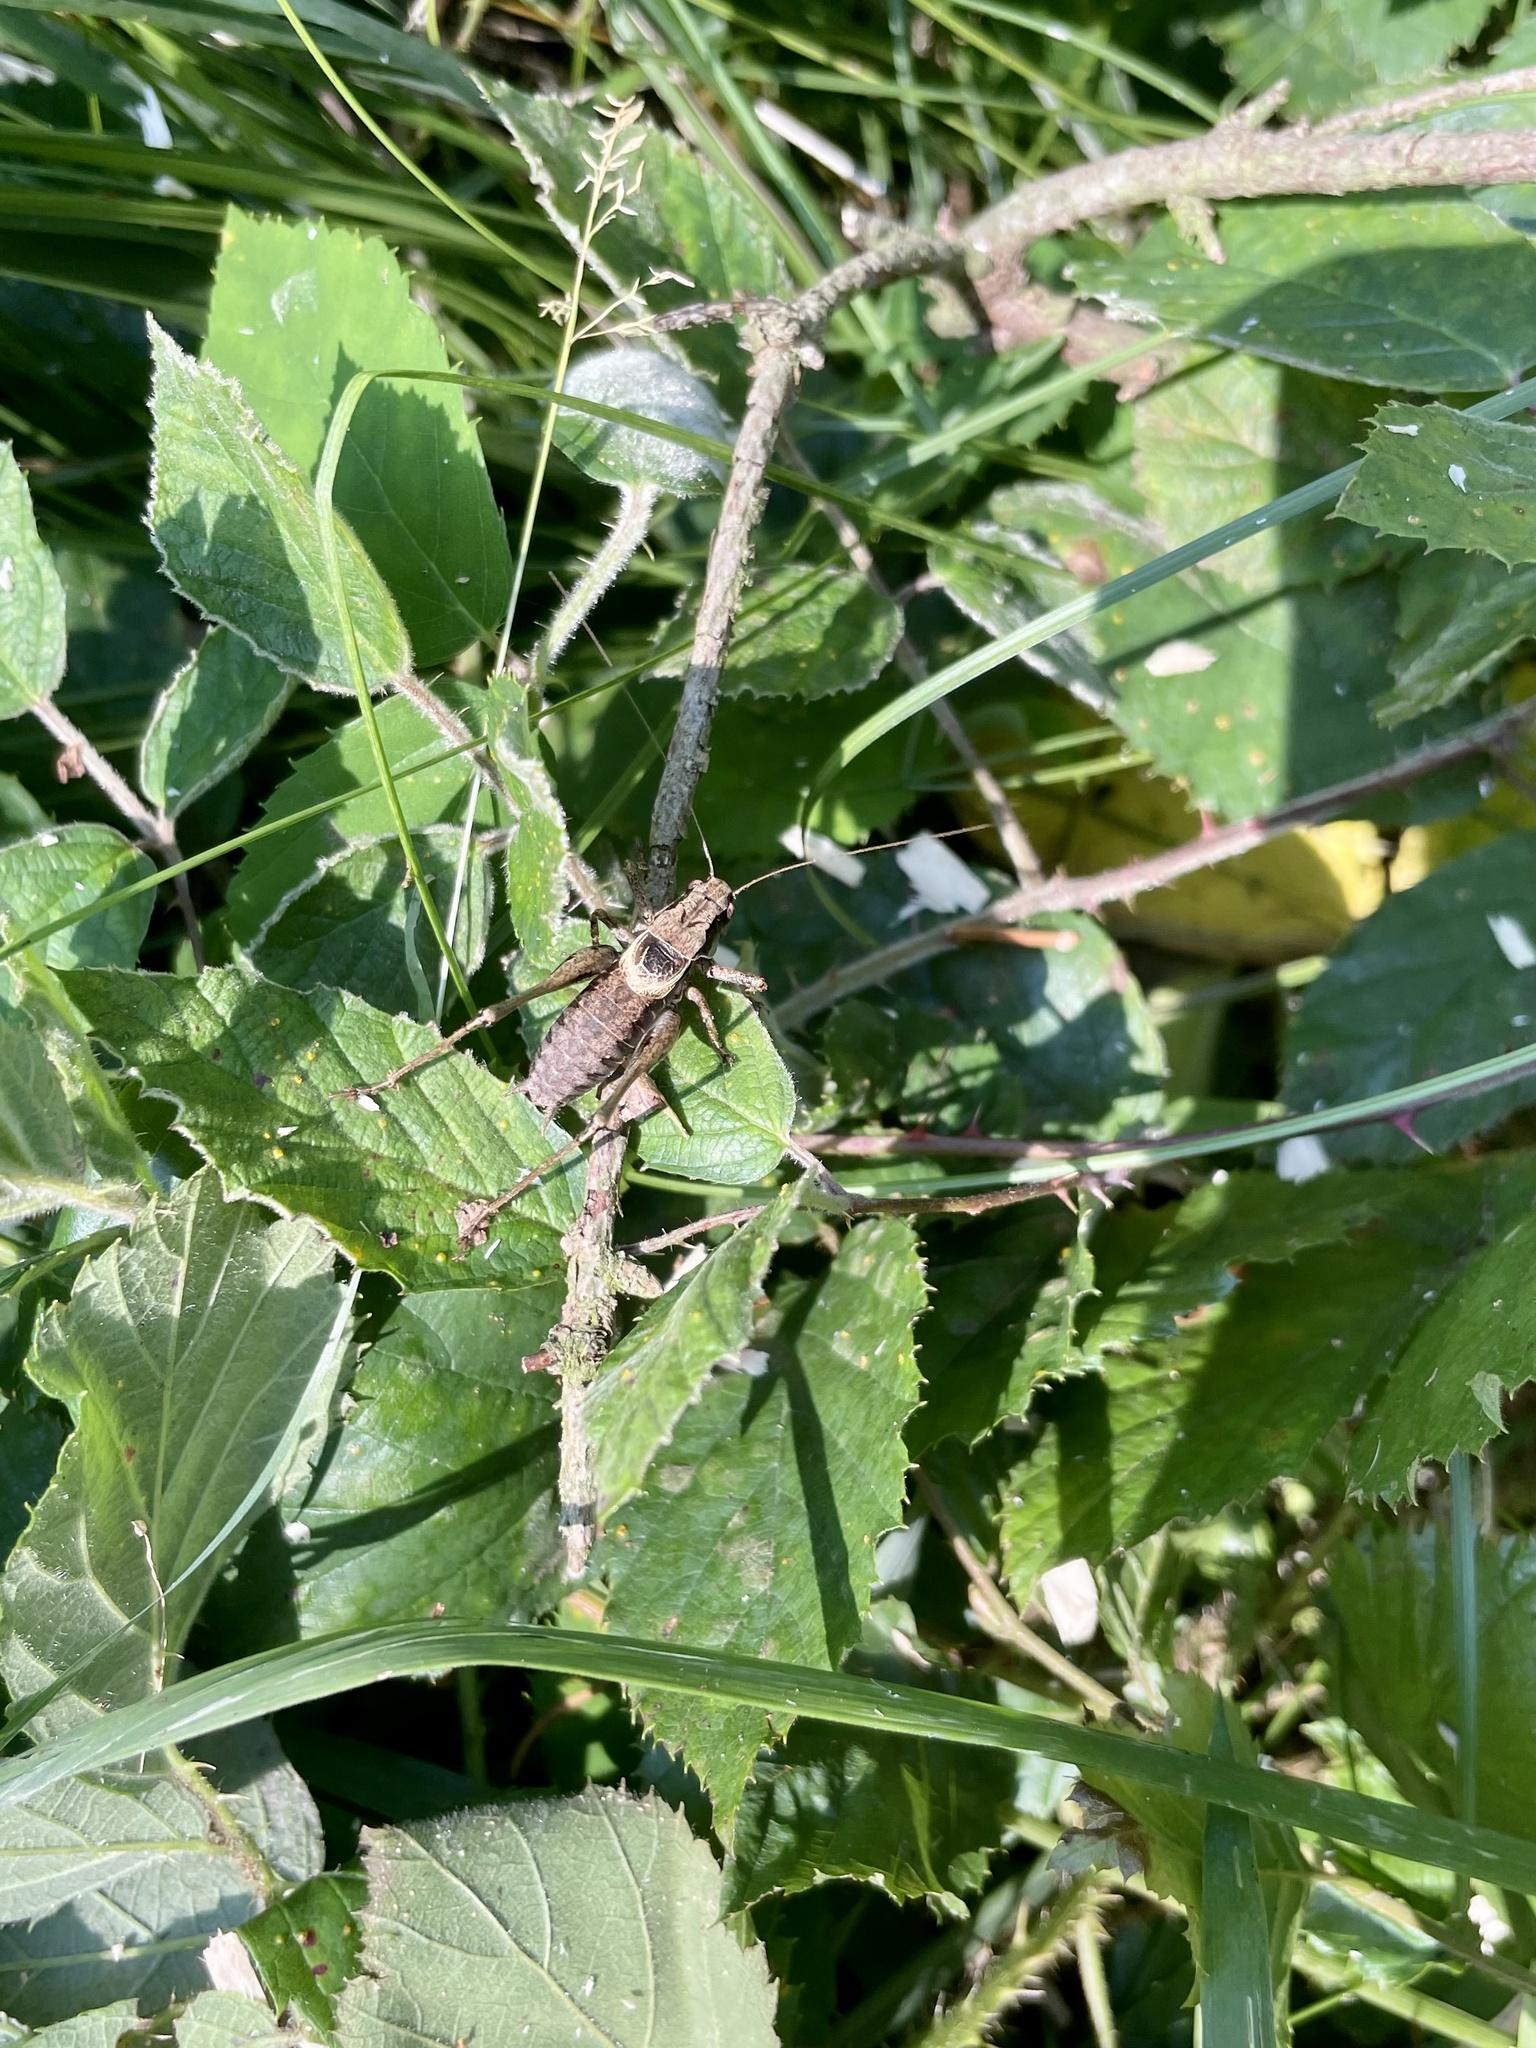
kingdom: Animalia
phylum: Arthropoda
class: Insecta
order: Orthoptera
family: Tettigoniidae
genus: Pholidoptera
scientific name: Pholidoptera griseoaptera
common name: Dark bush-cricket
